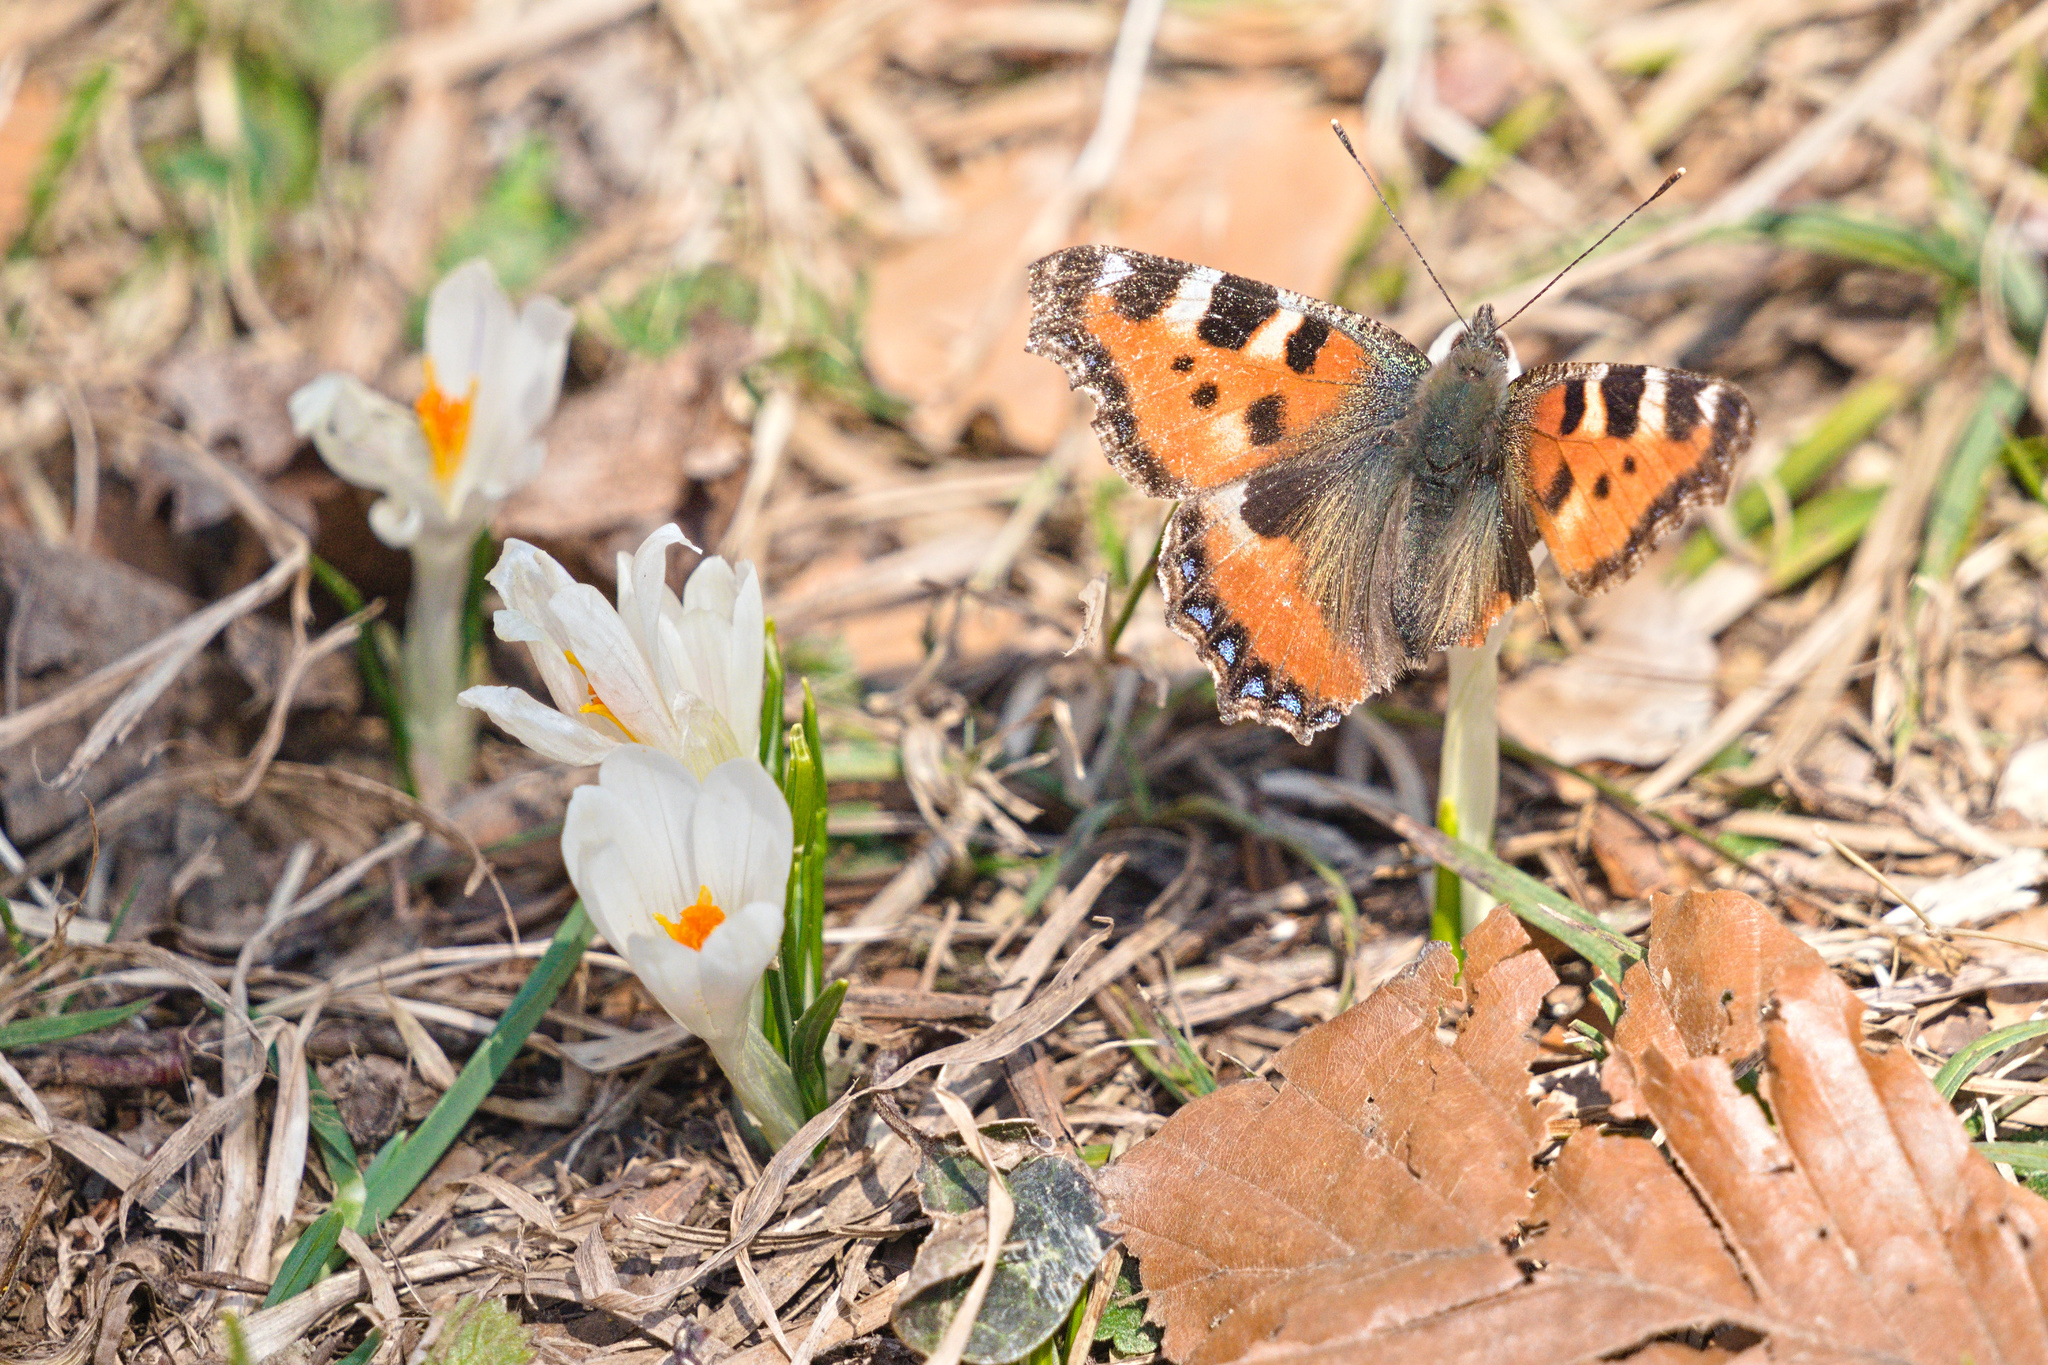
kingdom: Plantae
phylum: Tracheophyta
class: Liliopsida
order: Asparagales
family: Iridaceae
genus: Crocus
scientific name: Crocus vernus
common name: Spring crocus
